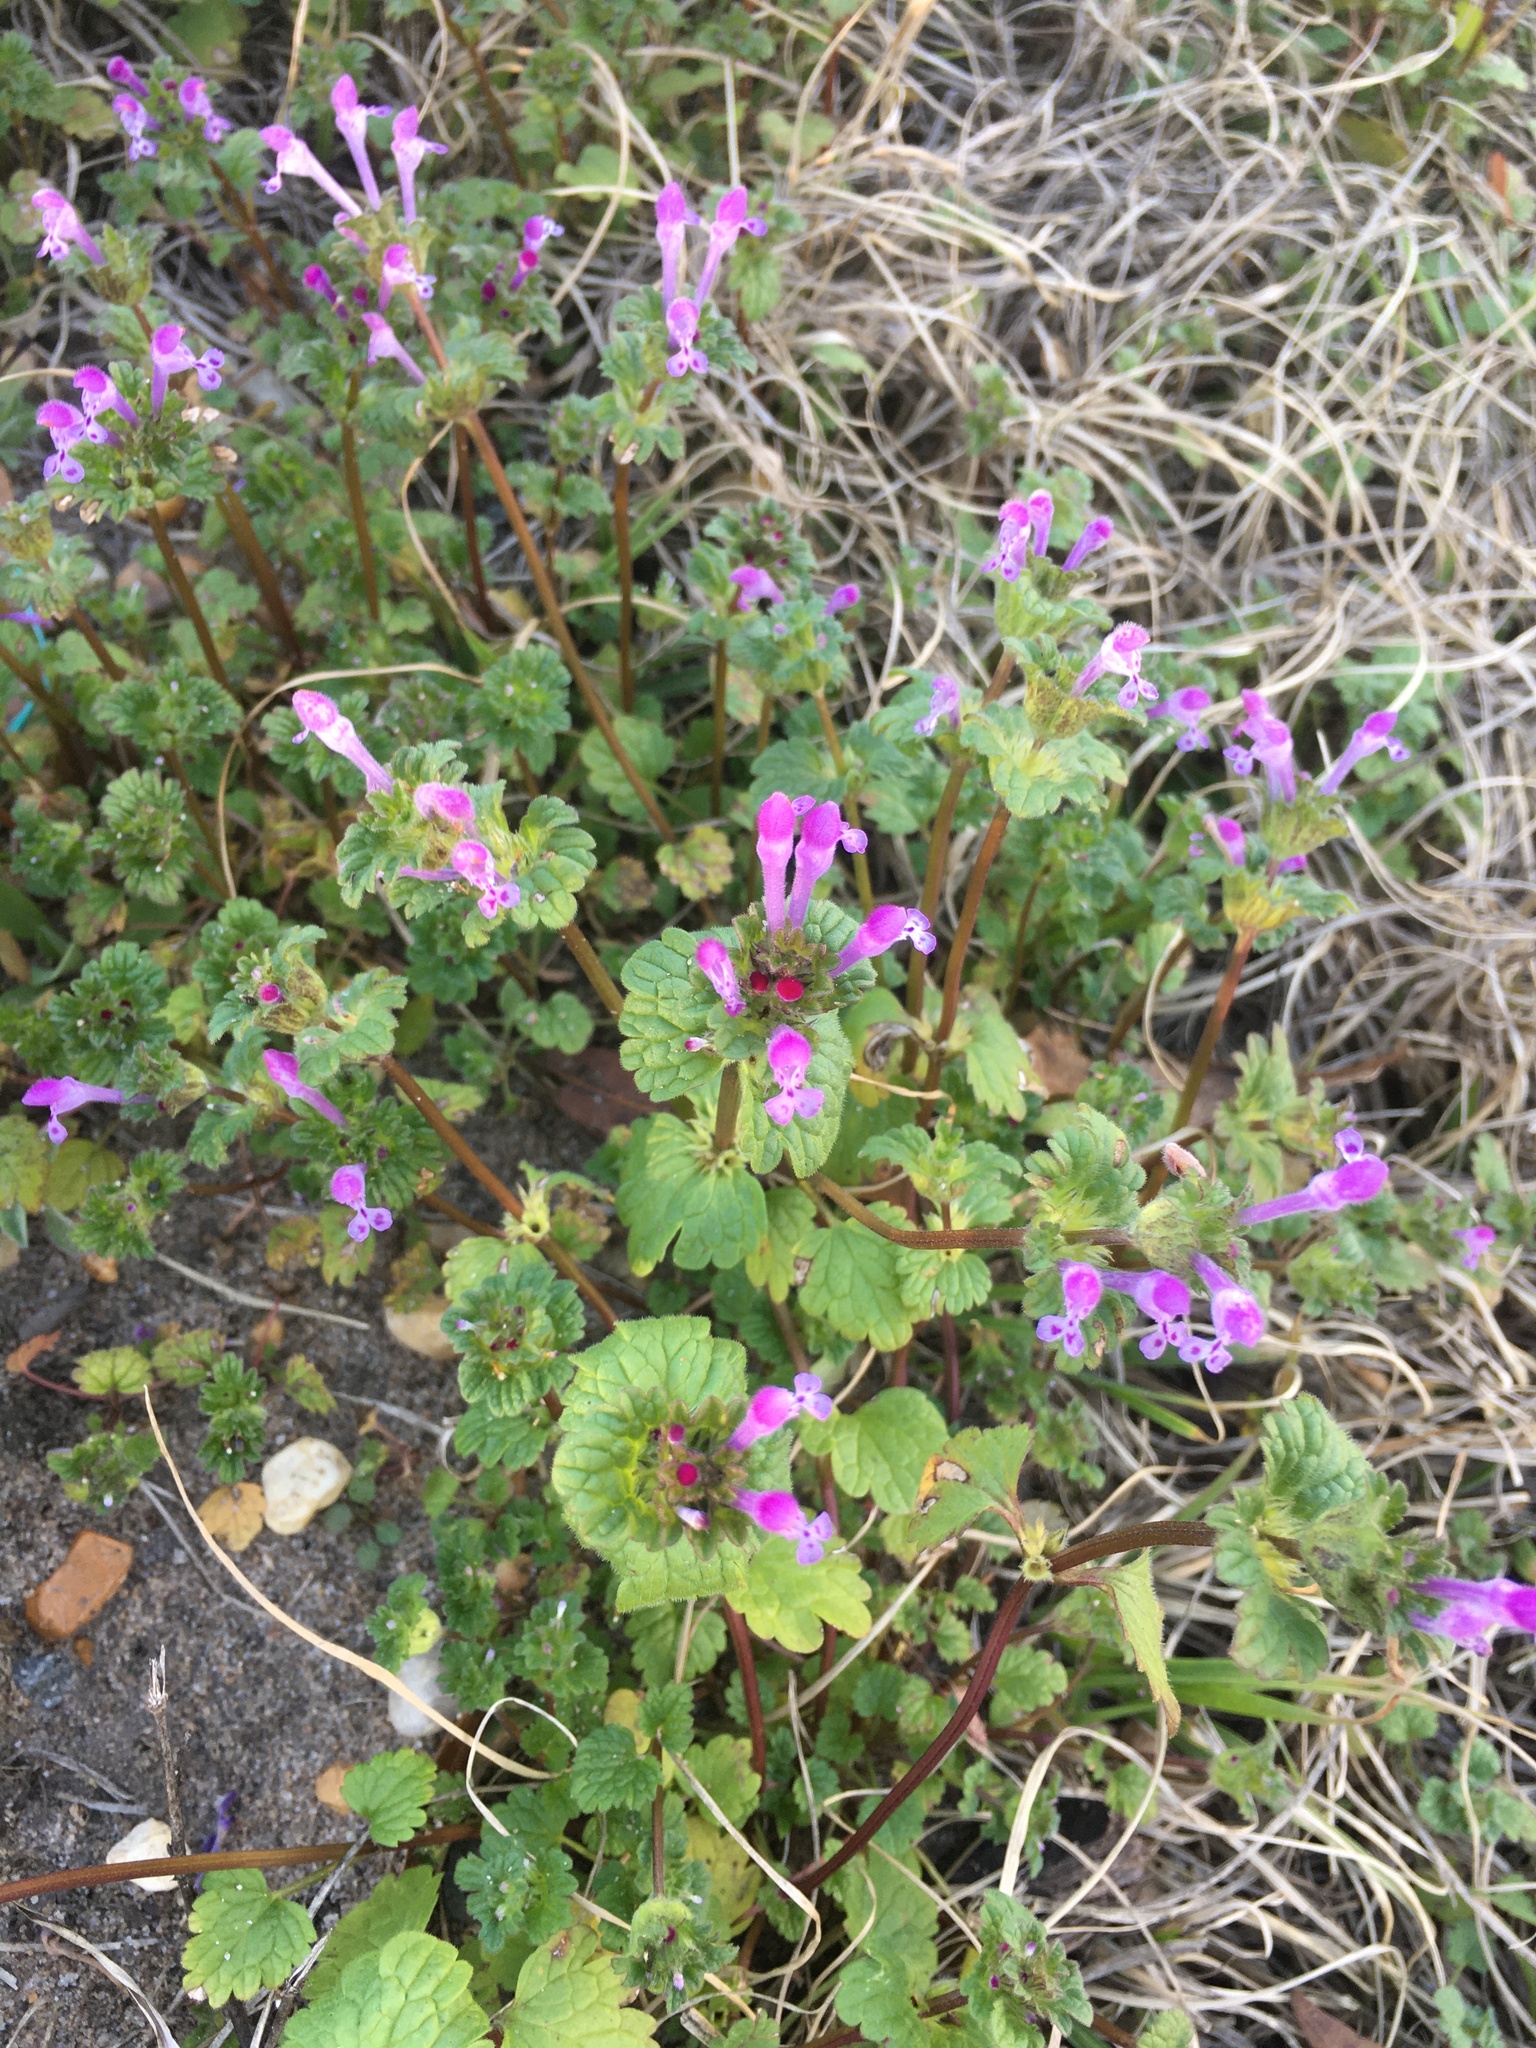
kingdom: Plantae
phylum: Tracheophyta
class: Magnoliopsida
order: Lamiales
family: Lamiaceae
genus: Lamium
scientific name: Lamium amplexicaule
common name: Henbit dead-nettle
